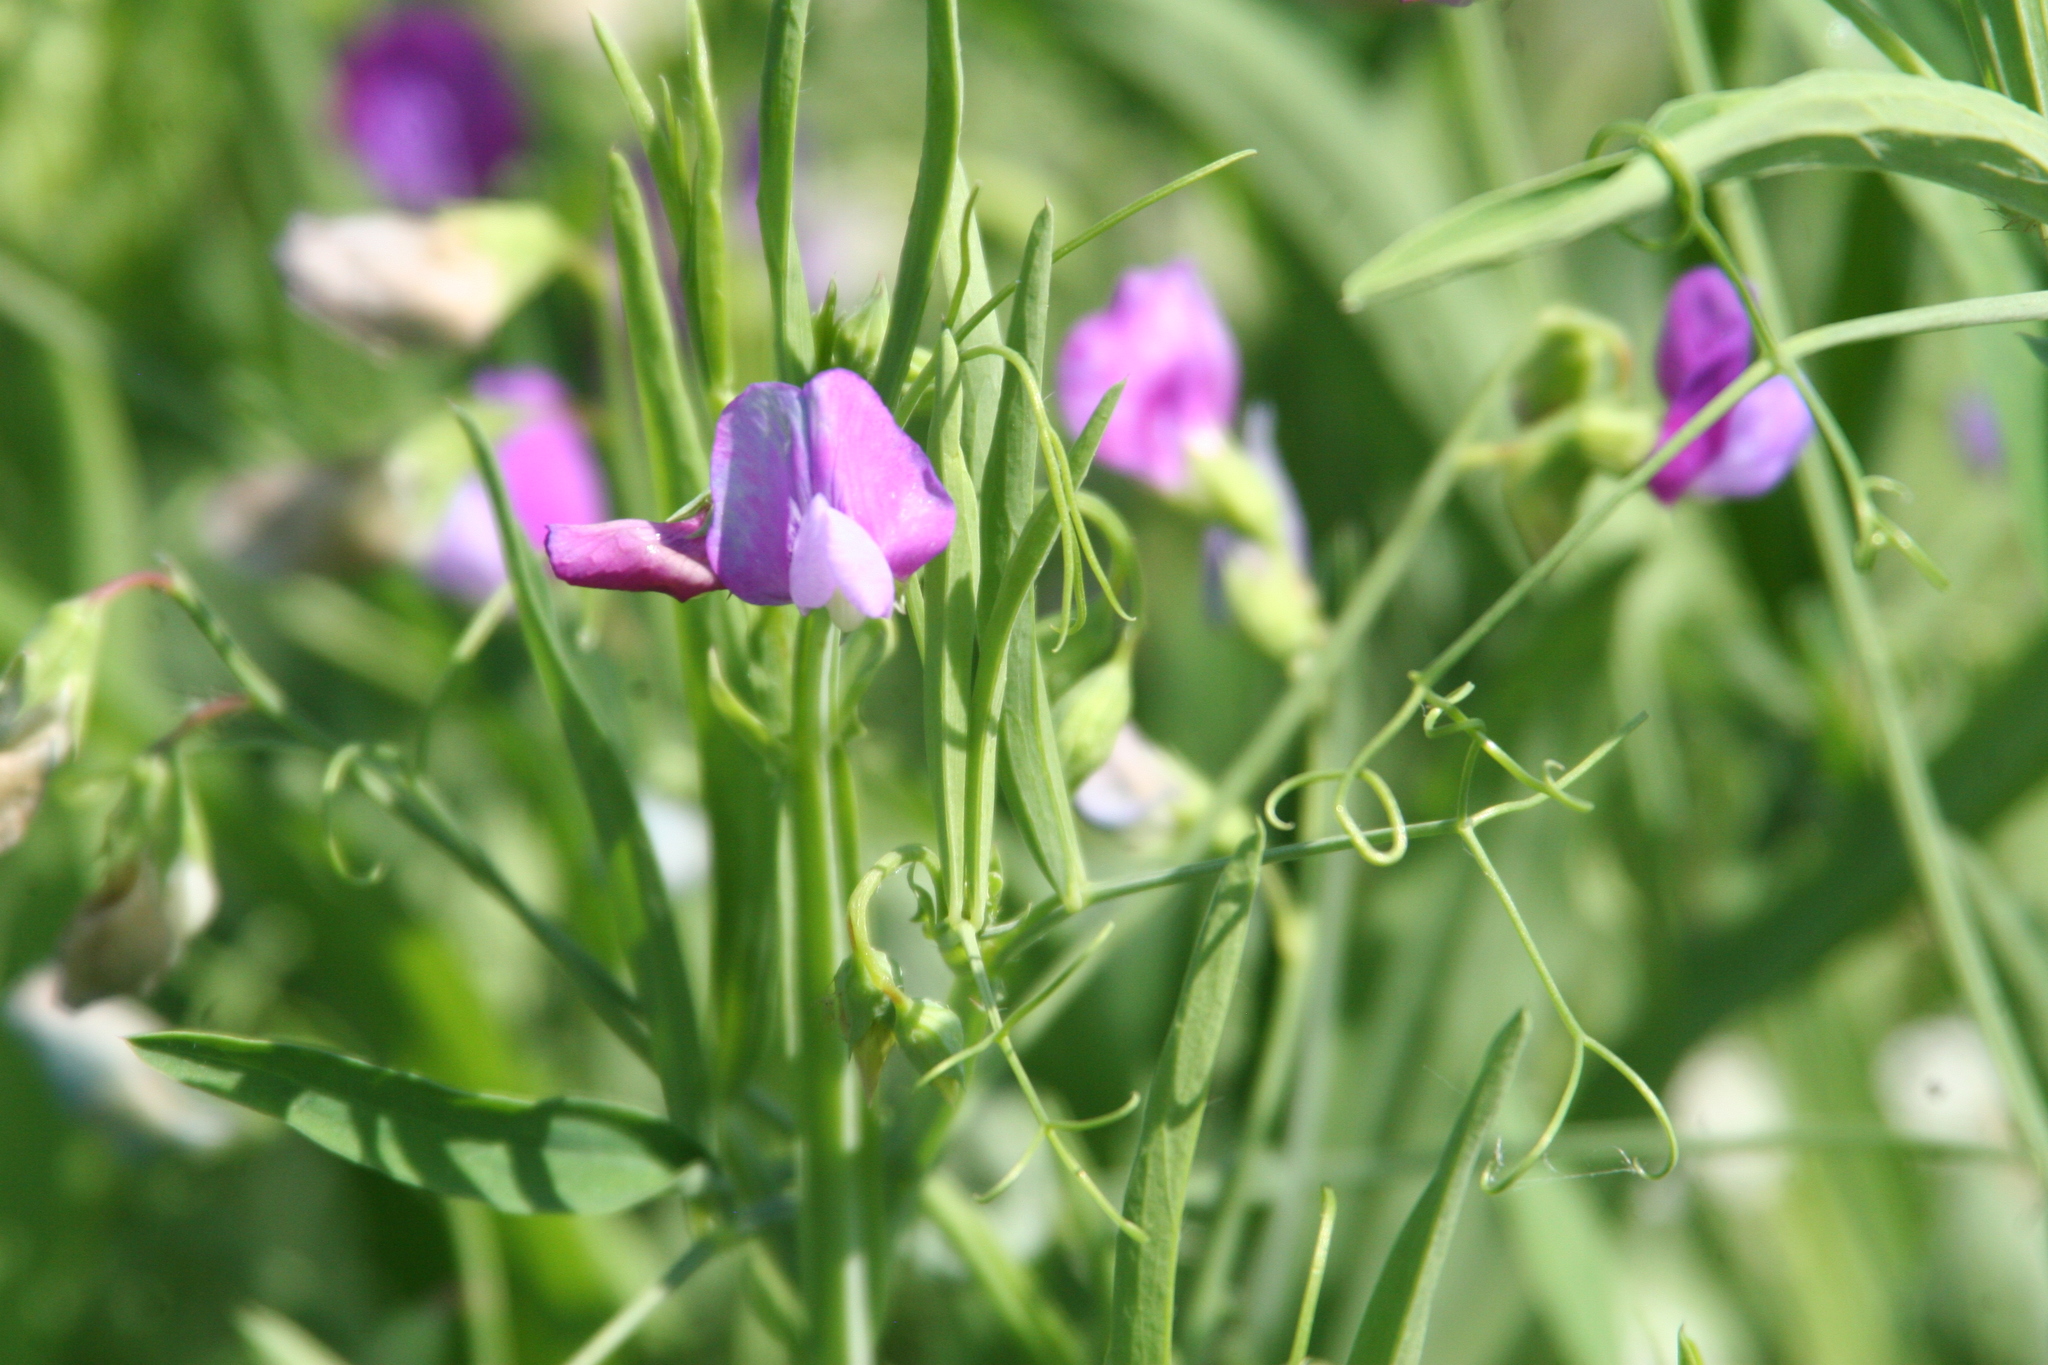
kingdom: Plantae
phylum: Tracheophyta
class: Magnoliopsida
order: Fabales
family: Fabaceae
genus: Lathyrus
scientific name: Lathyrus hirsutus
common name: Hairy vetchling
